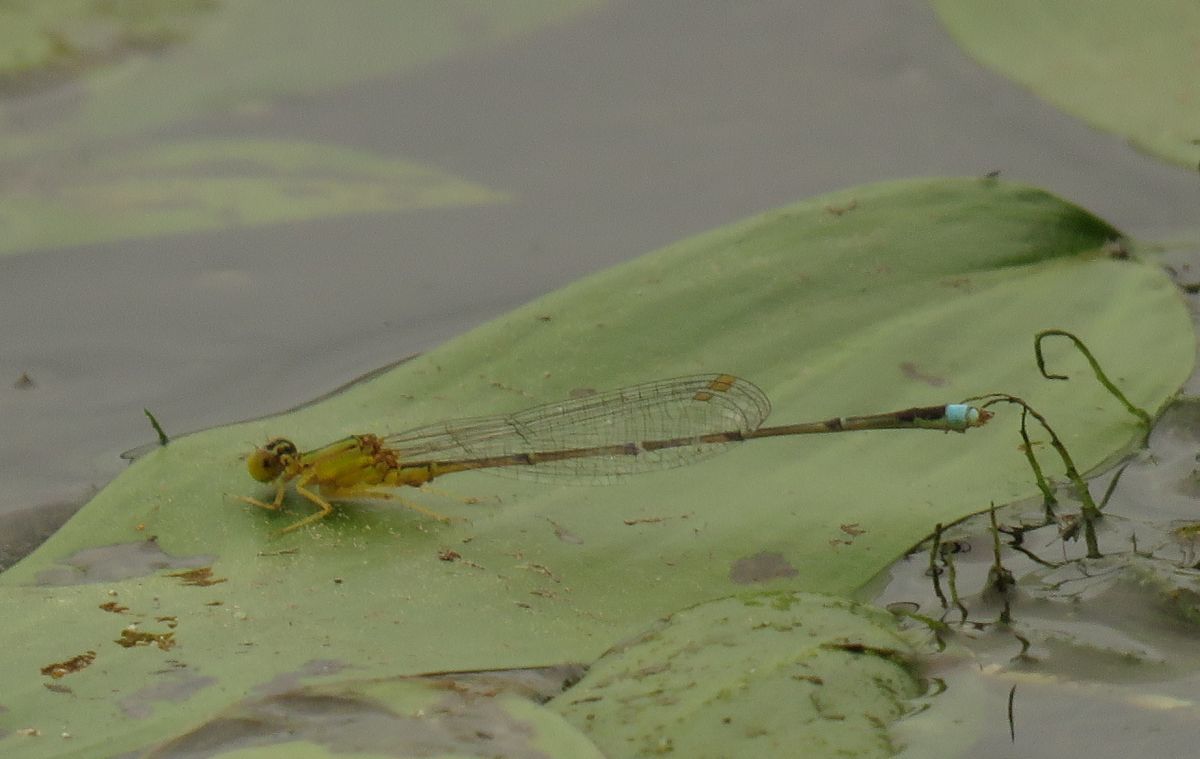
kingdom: Animalia
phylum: Arthropoda
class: Insecta
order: Odonata
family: Coenagrionidae
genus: Enallagma
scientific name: Enallagma vesperum
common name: Vesper bluet
